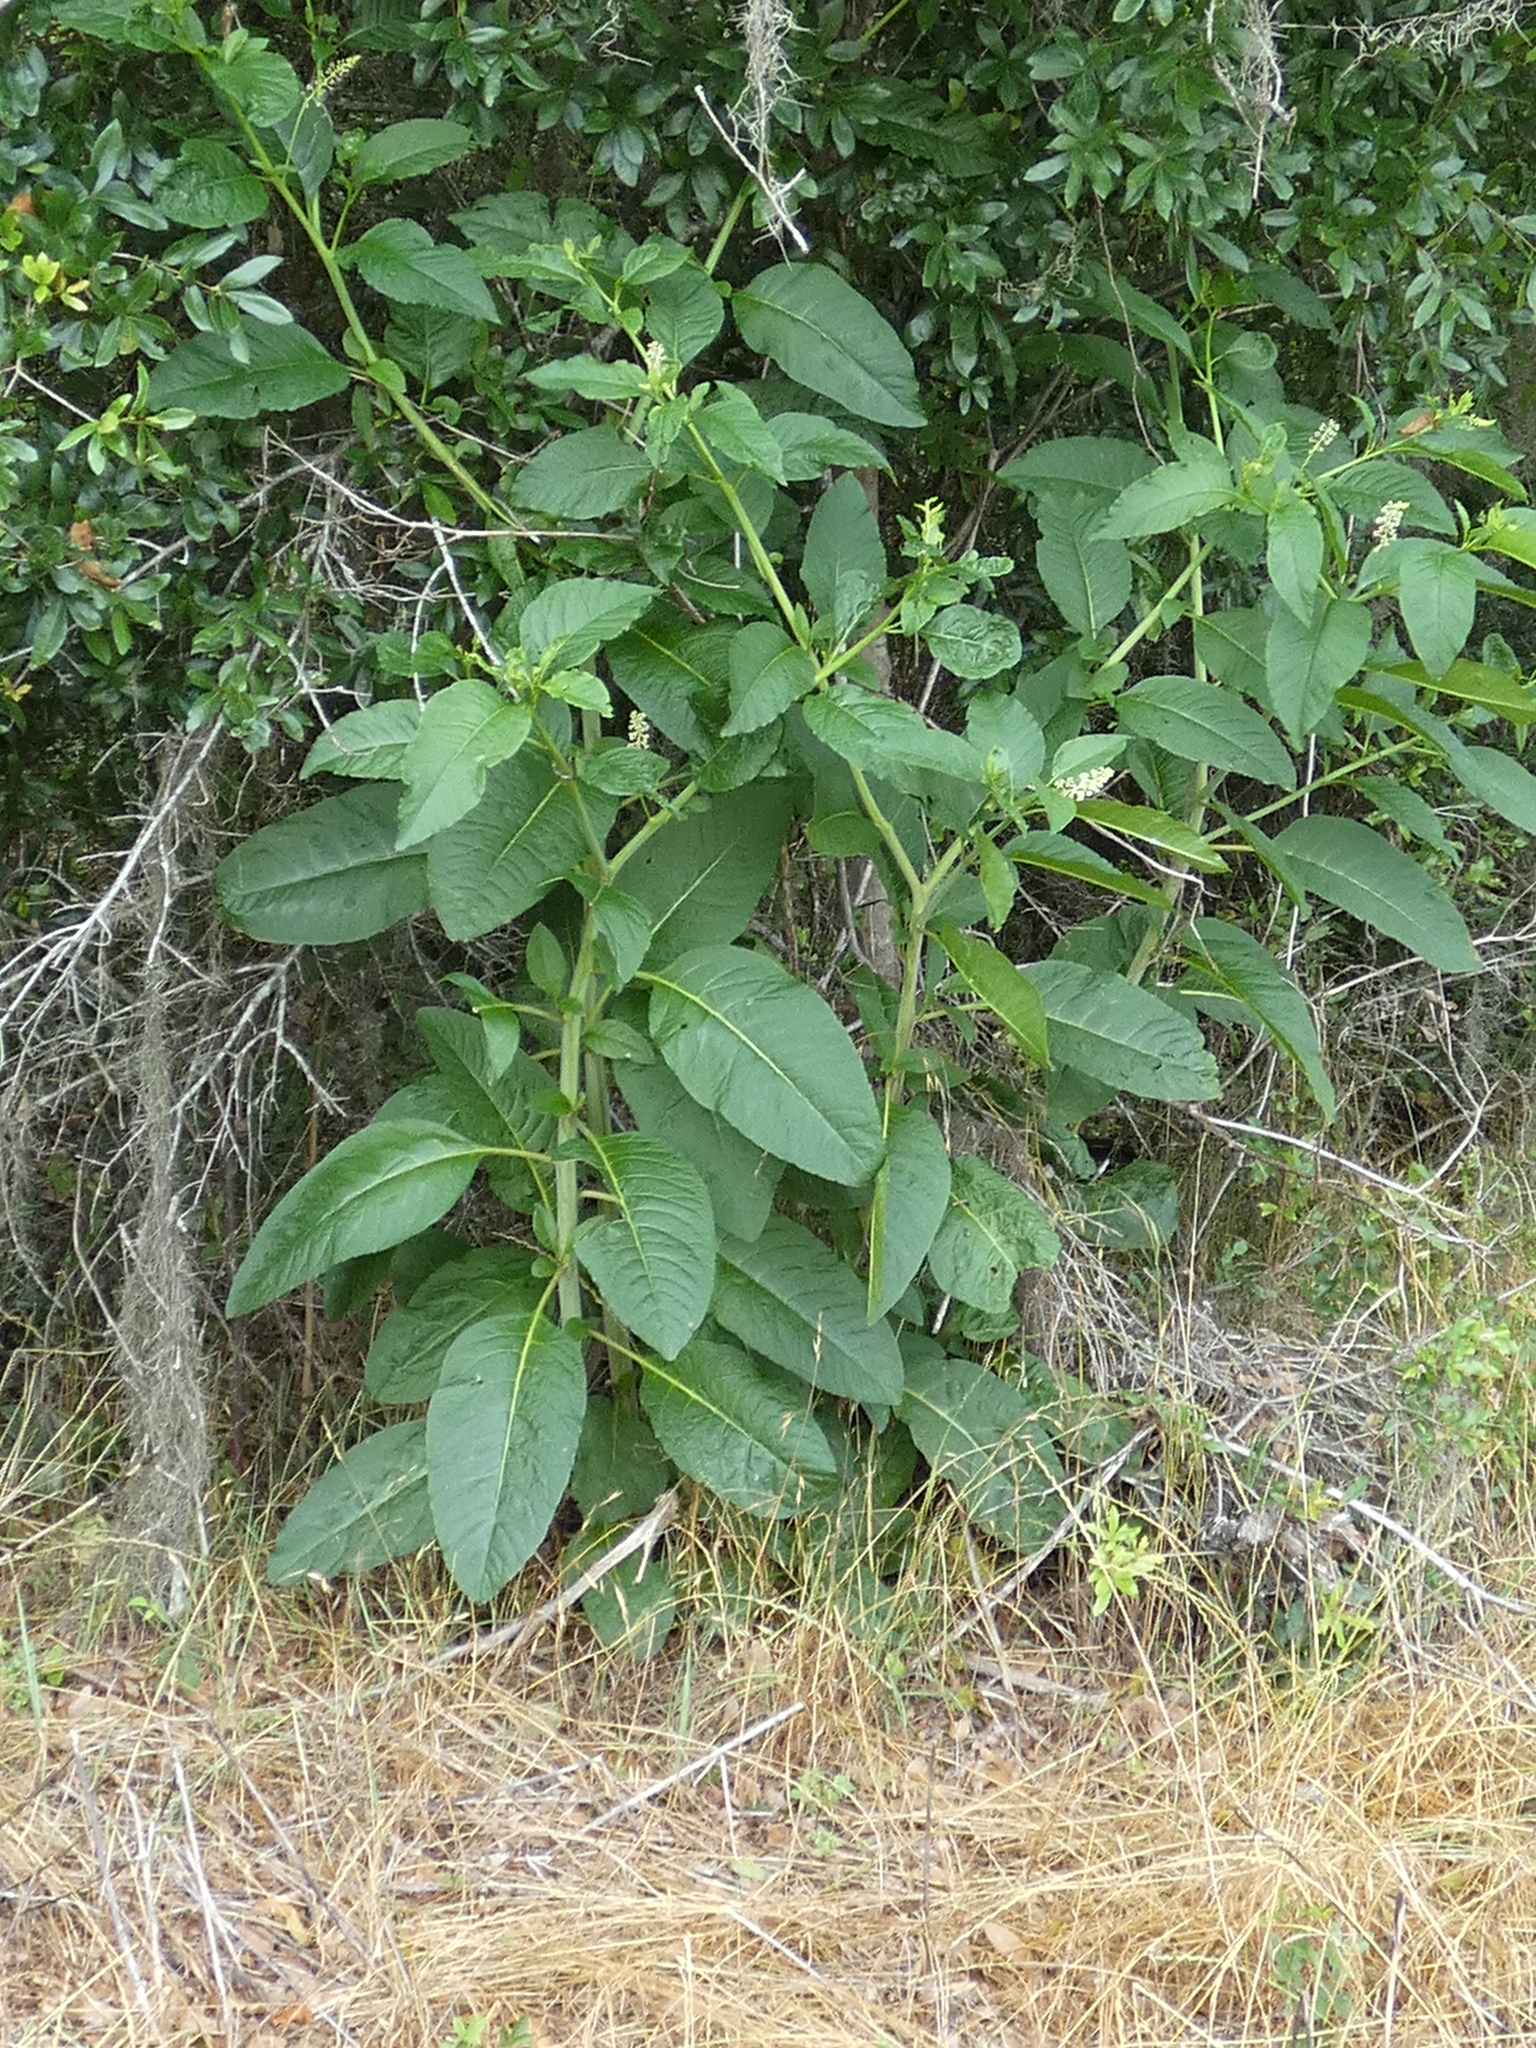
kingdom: Plantae
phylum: Tracheophyta
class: Magnoliopsida
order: Caryophyllales
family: Phytolaccaceae
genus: Phytolacca
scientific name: Phytolacca americana
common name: American pokeweed
